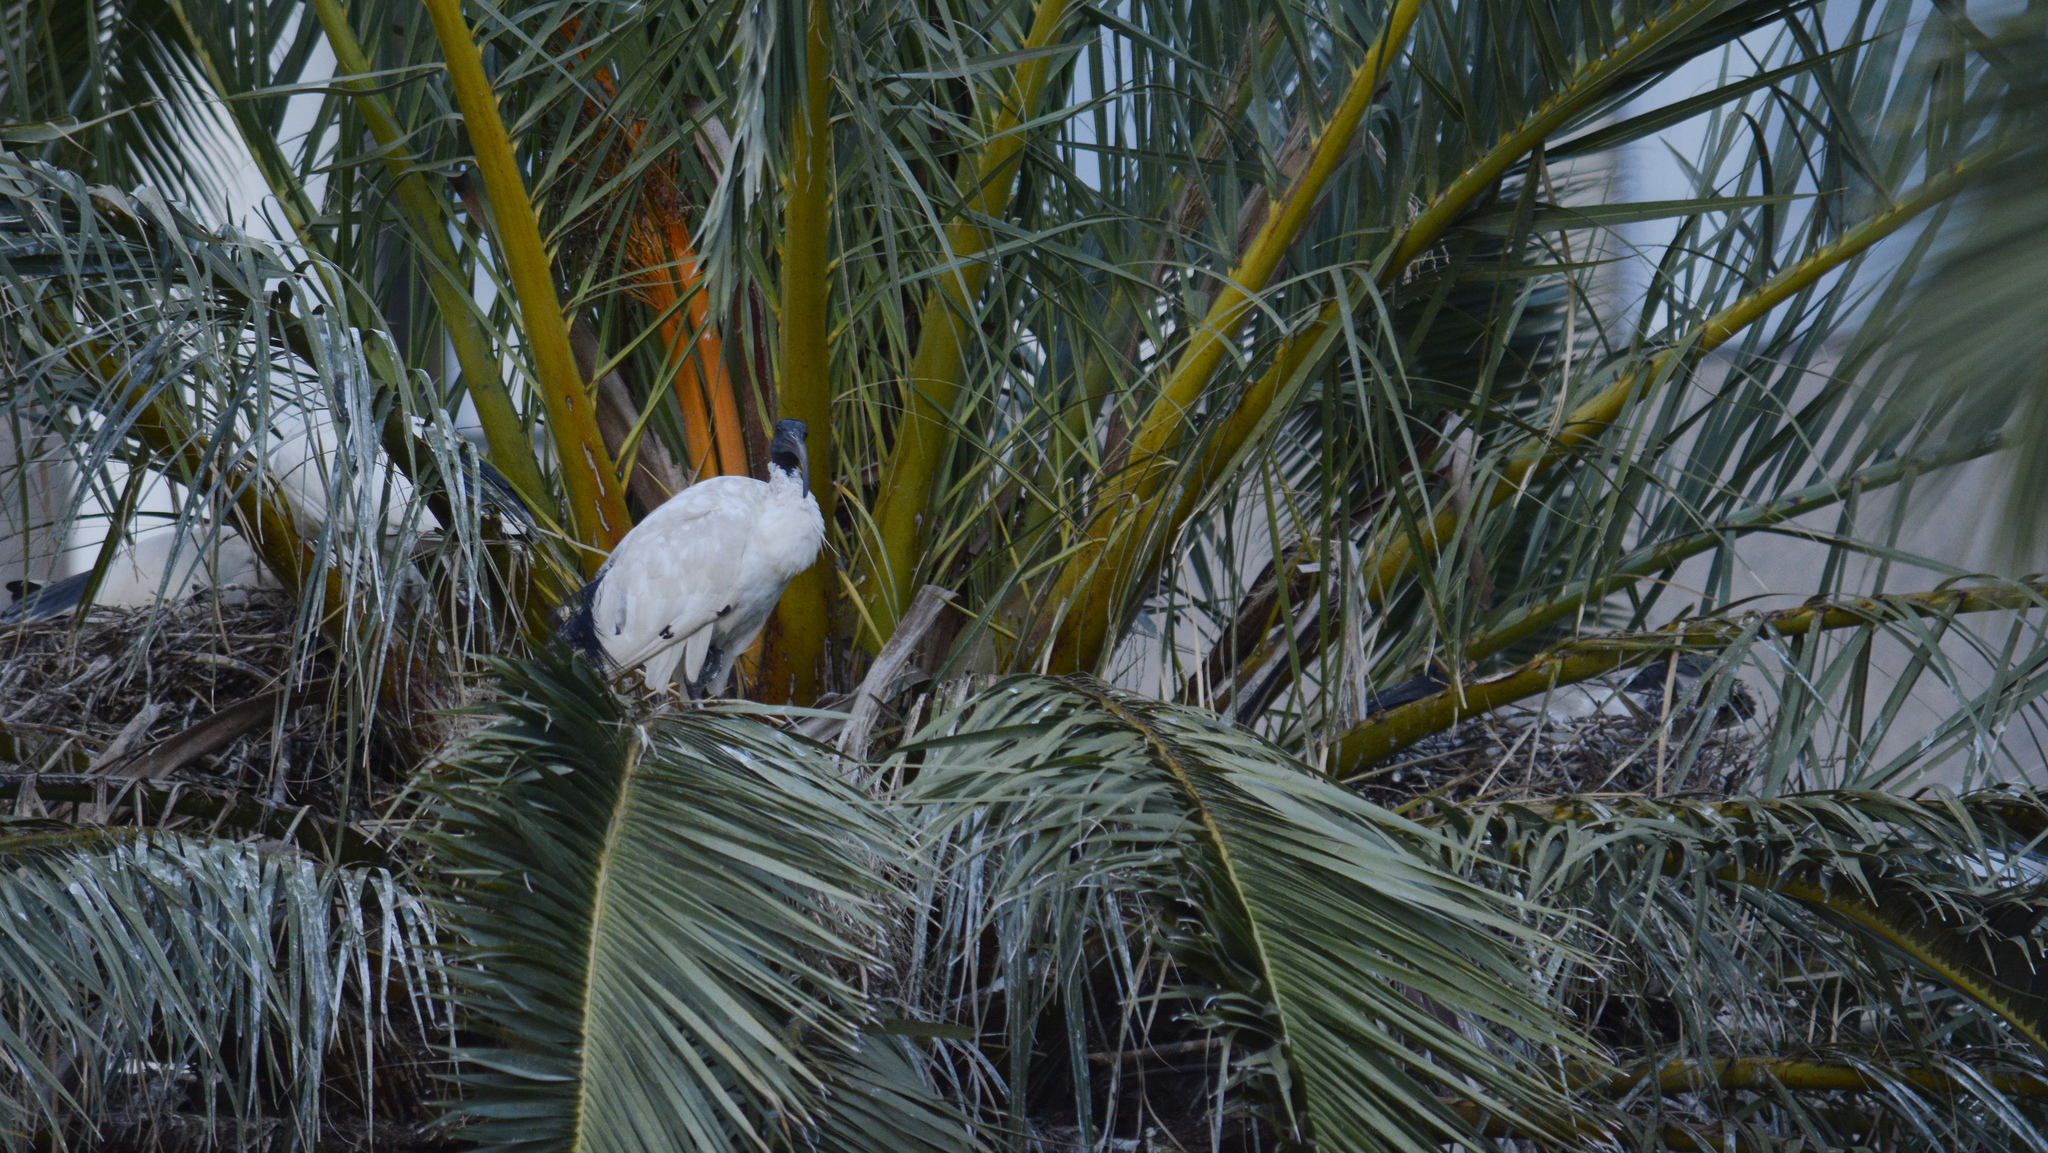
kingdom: Animalia
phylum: Chordata
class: Aves
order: Pelecaniformes
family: Threskiornithidae
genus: Threskiornis
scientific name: Threskiornis molucca
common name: Australian white ibis
